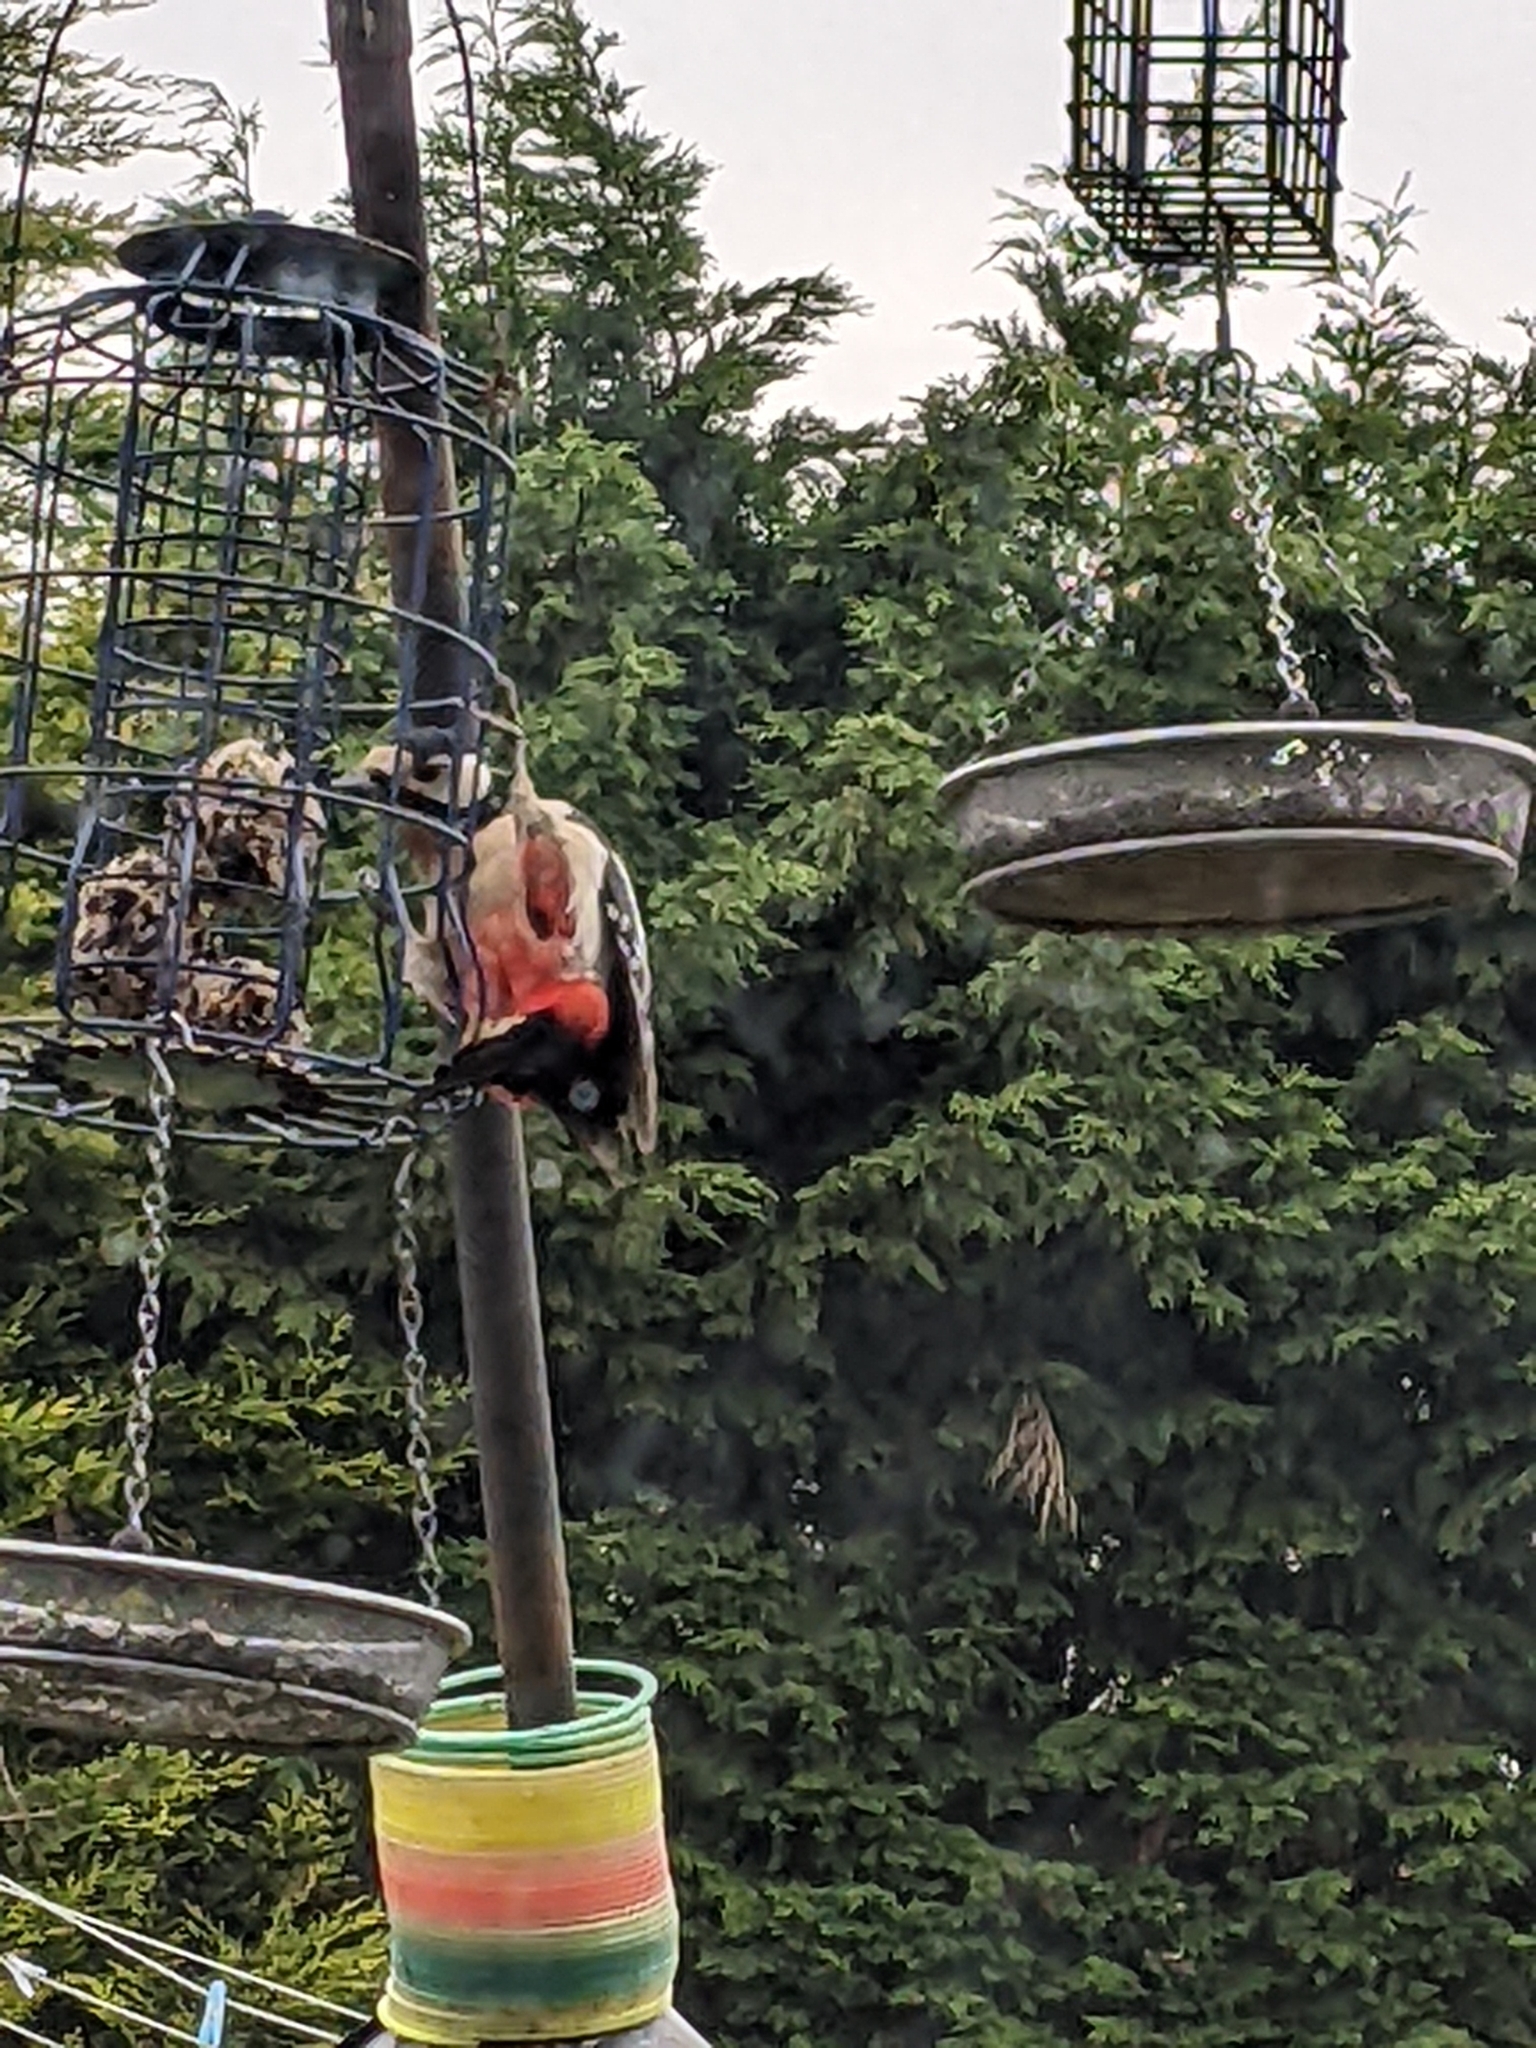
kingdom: Animalia
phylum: Chordata
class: Aves
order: Piciformes
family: Picidae
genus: Dendrocopos
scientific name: Dendrocopos major
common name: Great spotted woodpecker
